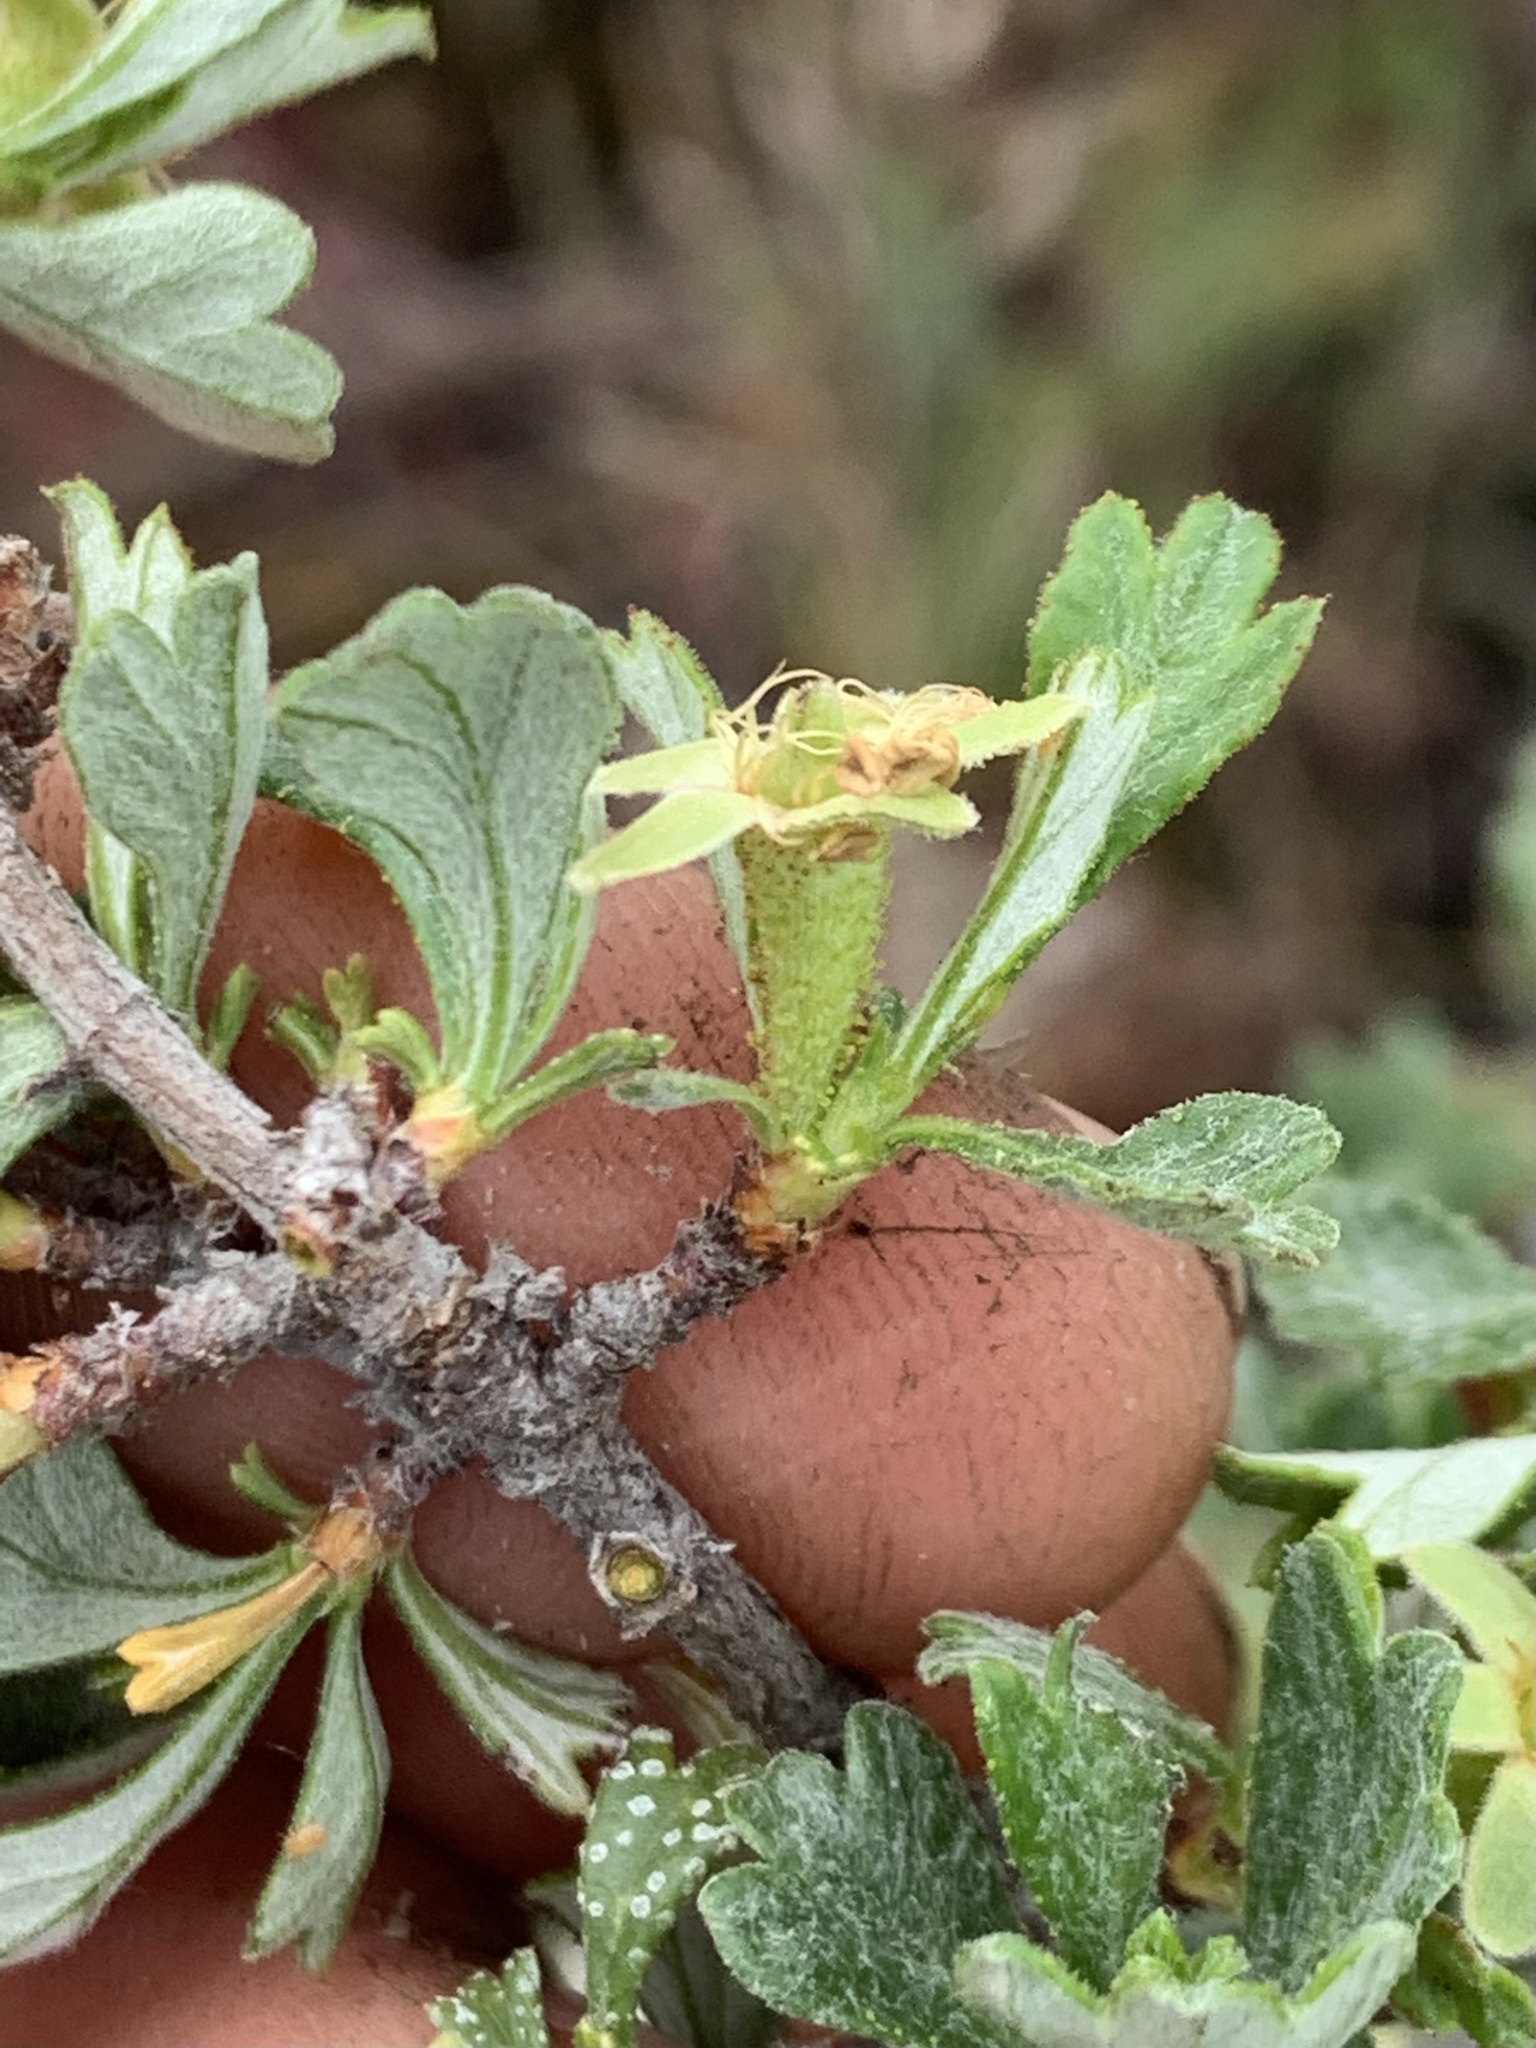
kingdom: Plantae
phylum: Tracheophyta
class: Magnoliopsida
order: Rosales
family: Rosaceae
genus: Purshia
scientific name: Purshia tridentata
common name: Antelope bitterbrush
